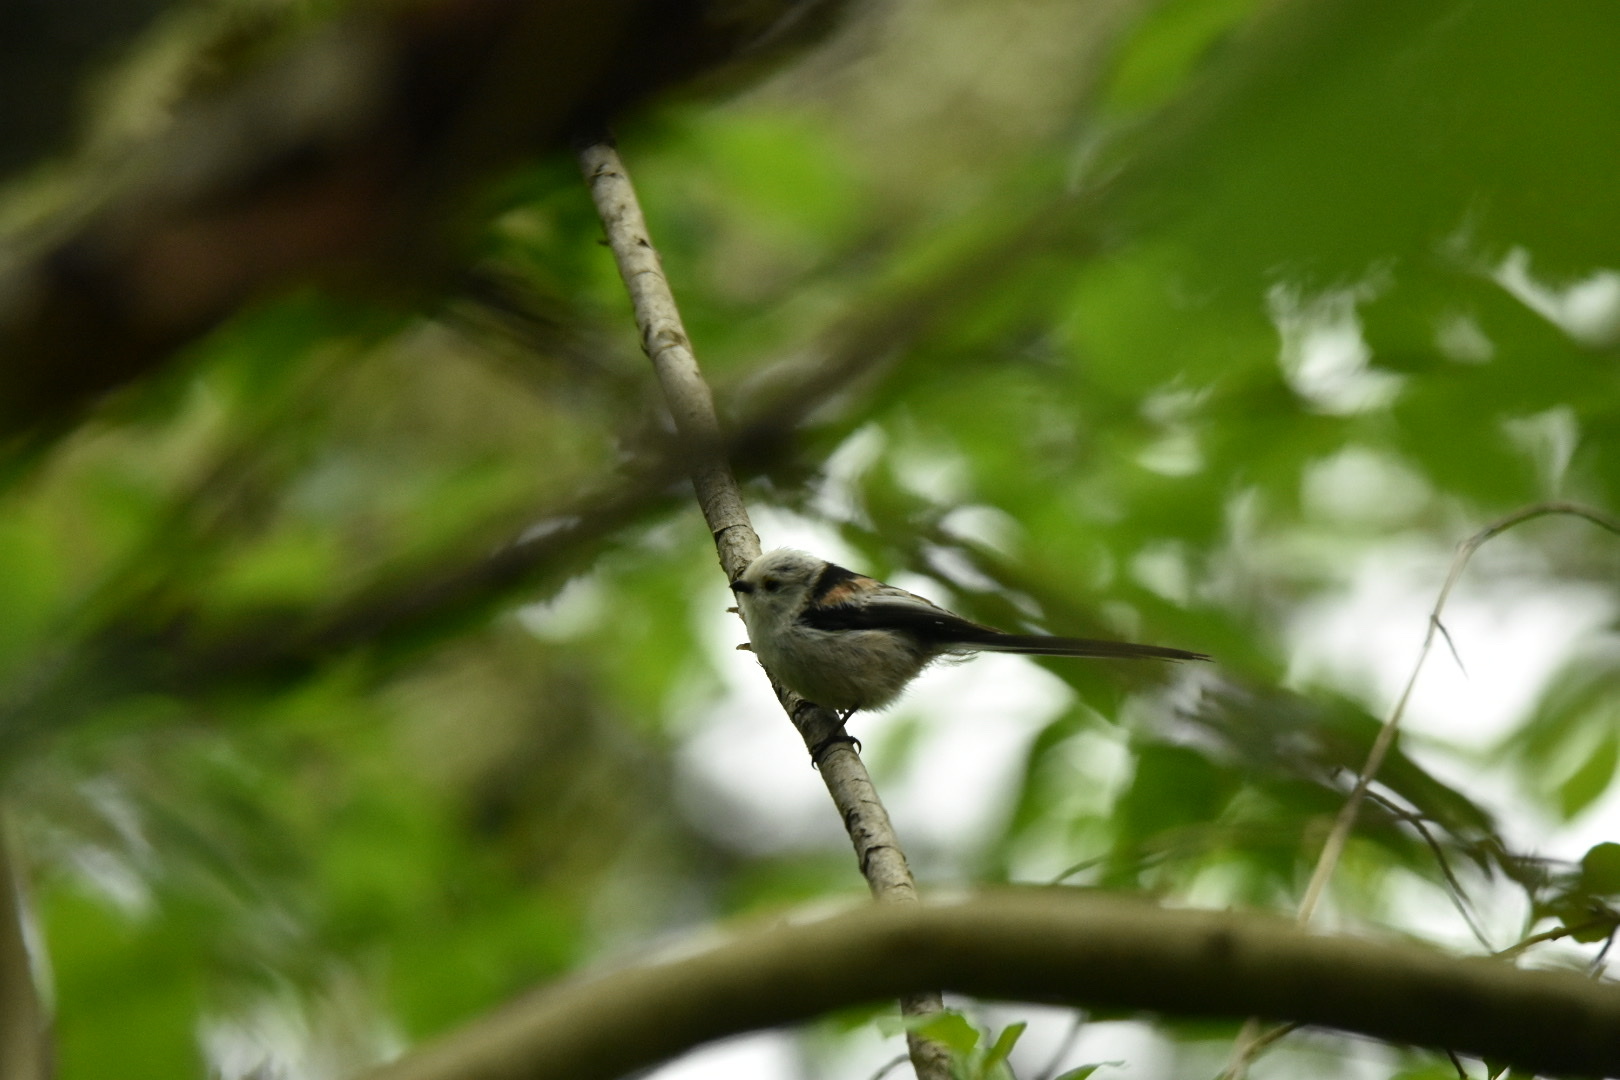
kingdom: Animalia
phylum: Chordata
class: Aves
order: Passeriformes
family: Aegithalidae
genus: Aegithalos
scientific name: Aegithalos caudatus
